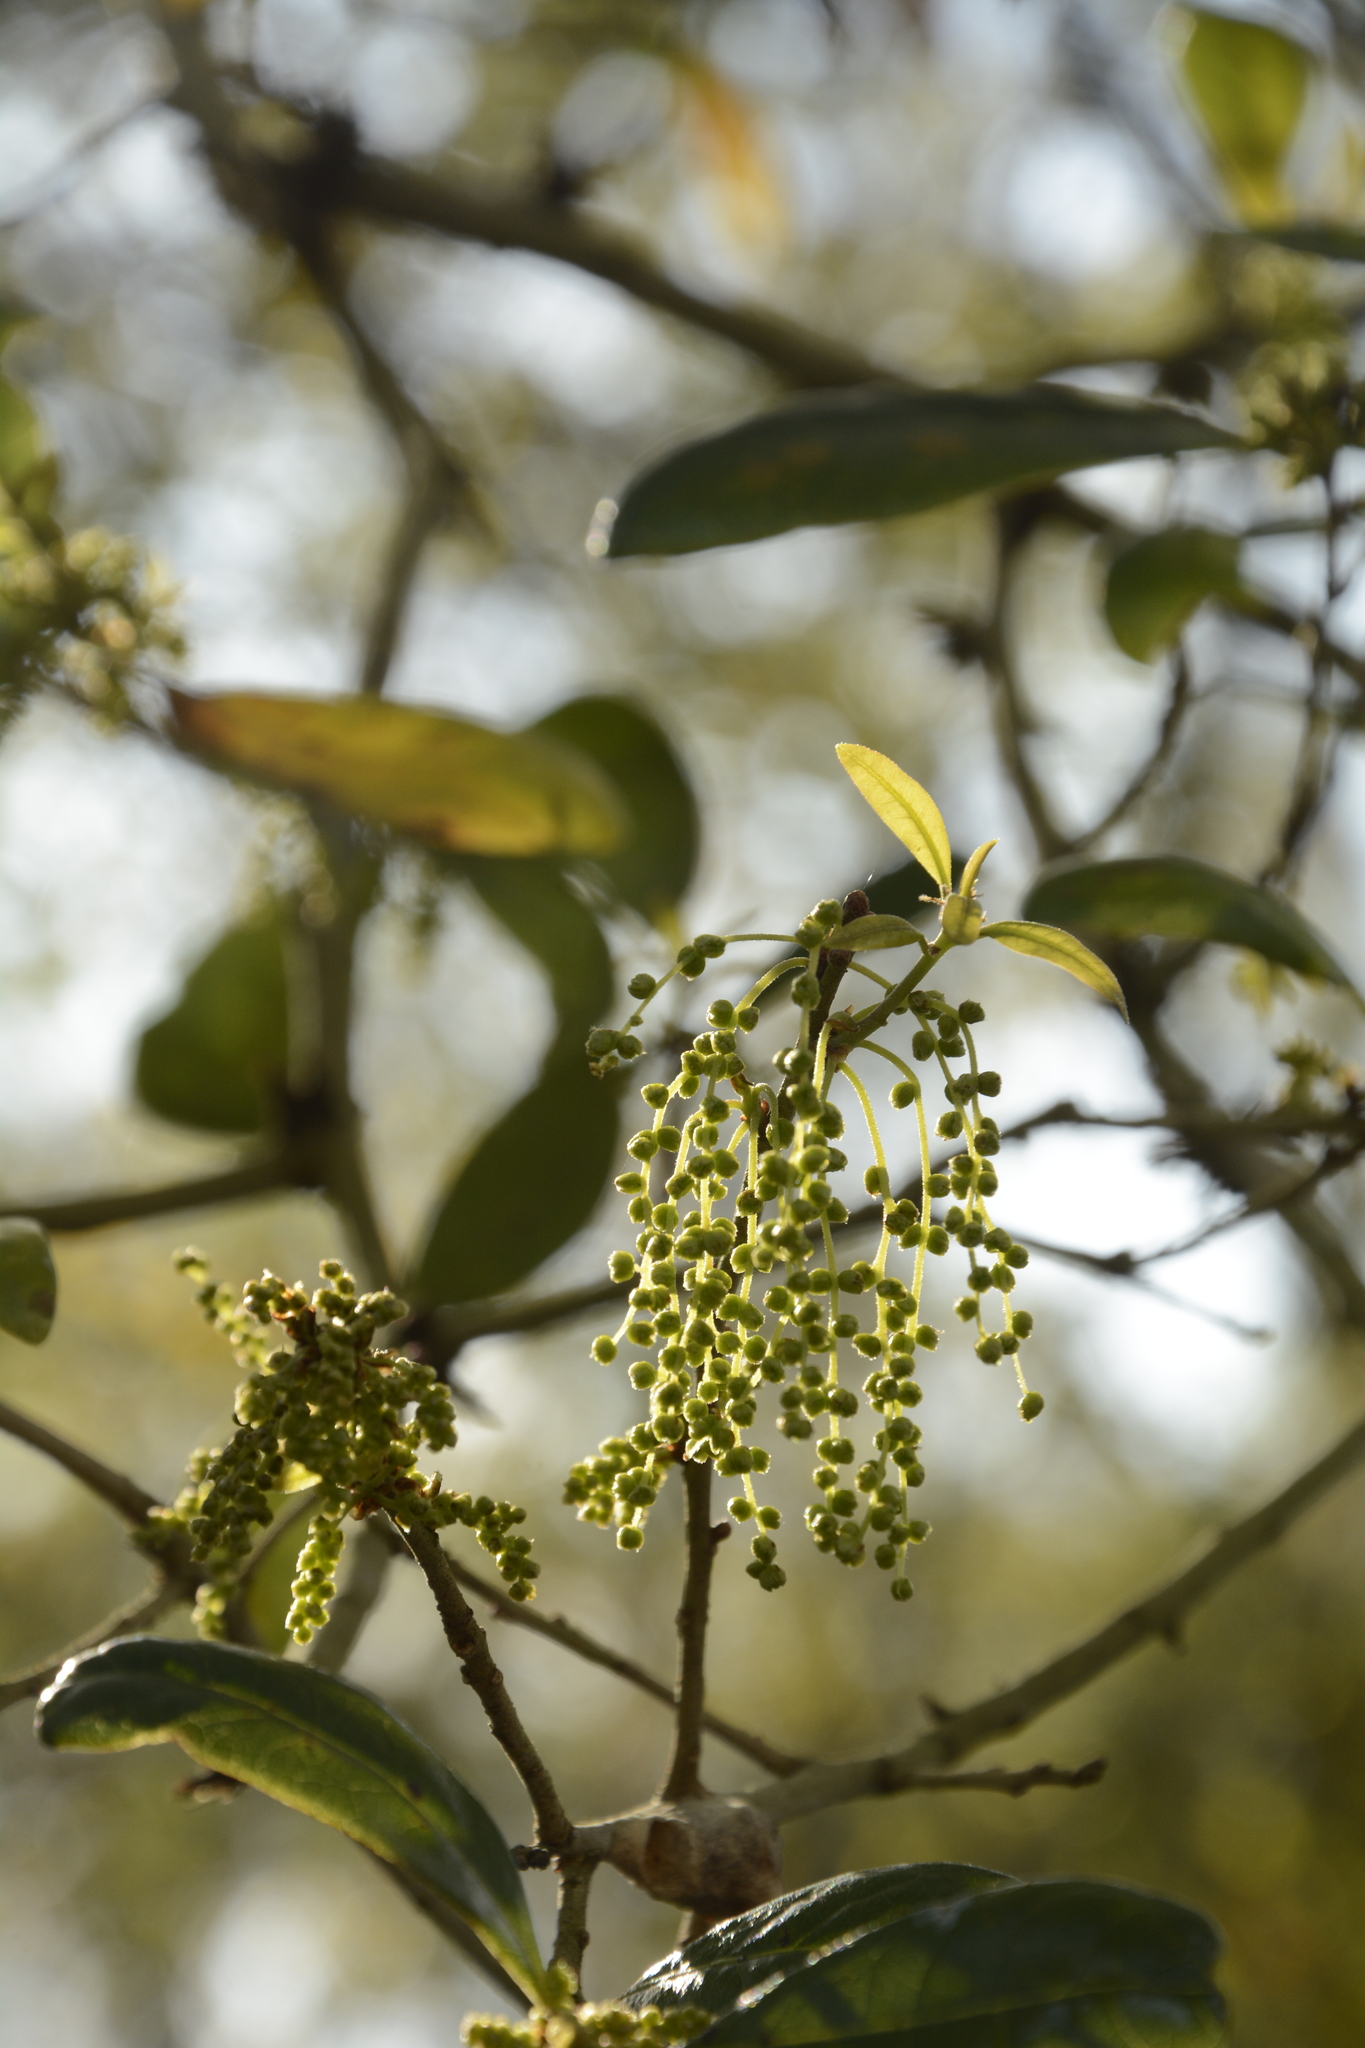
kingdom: Plantae
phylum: Tracheophyta
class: Magnoliopsida
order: Fagales
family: Fagaceae
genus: Quercus
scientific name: Quercus virginiana
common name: Southern live oak
